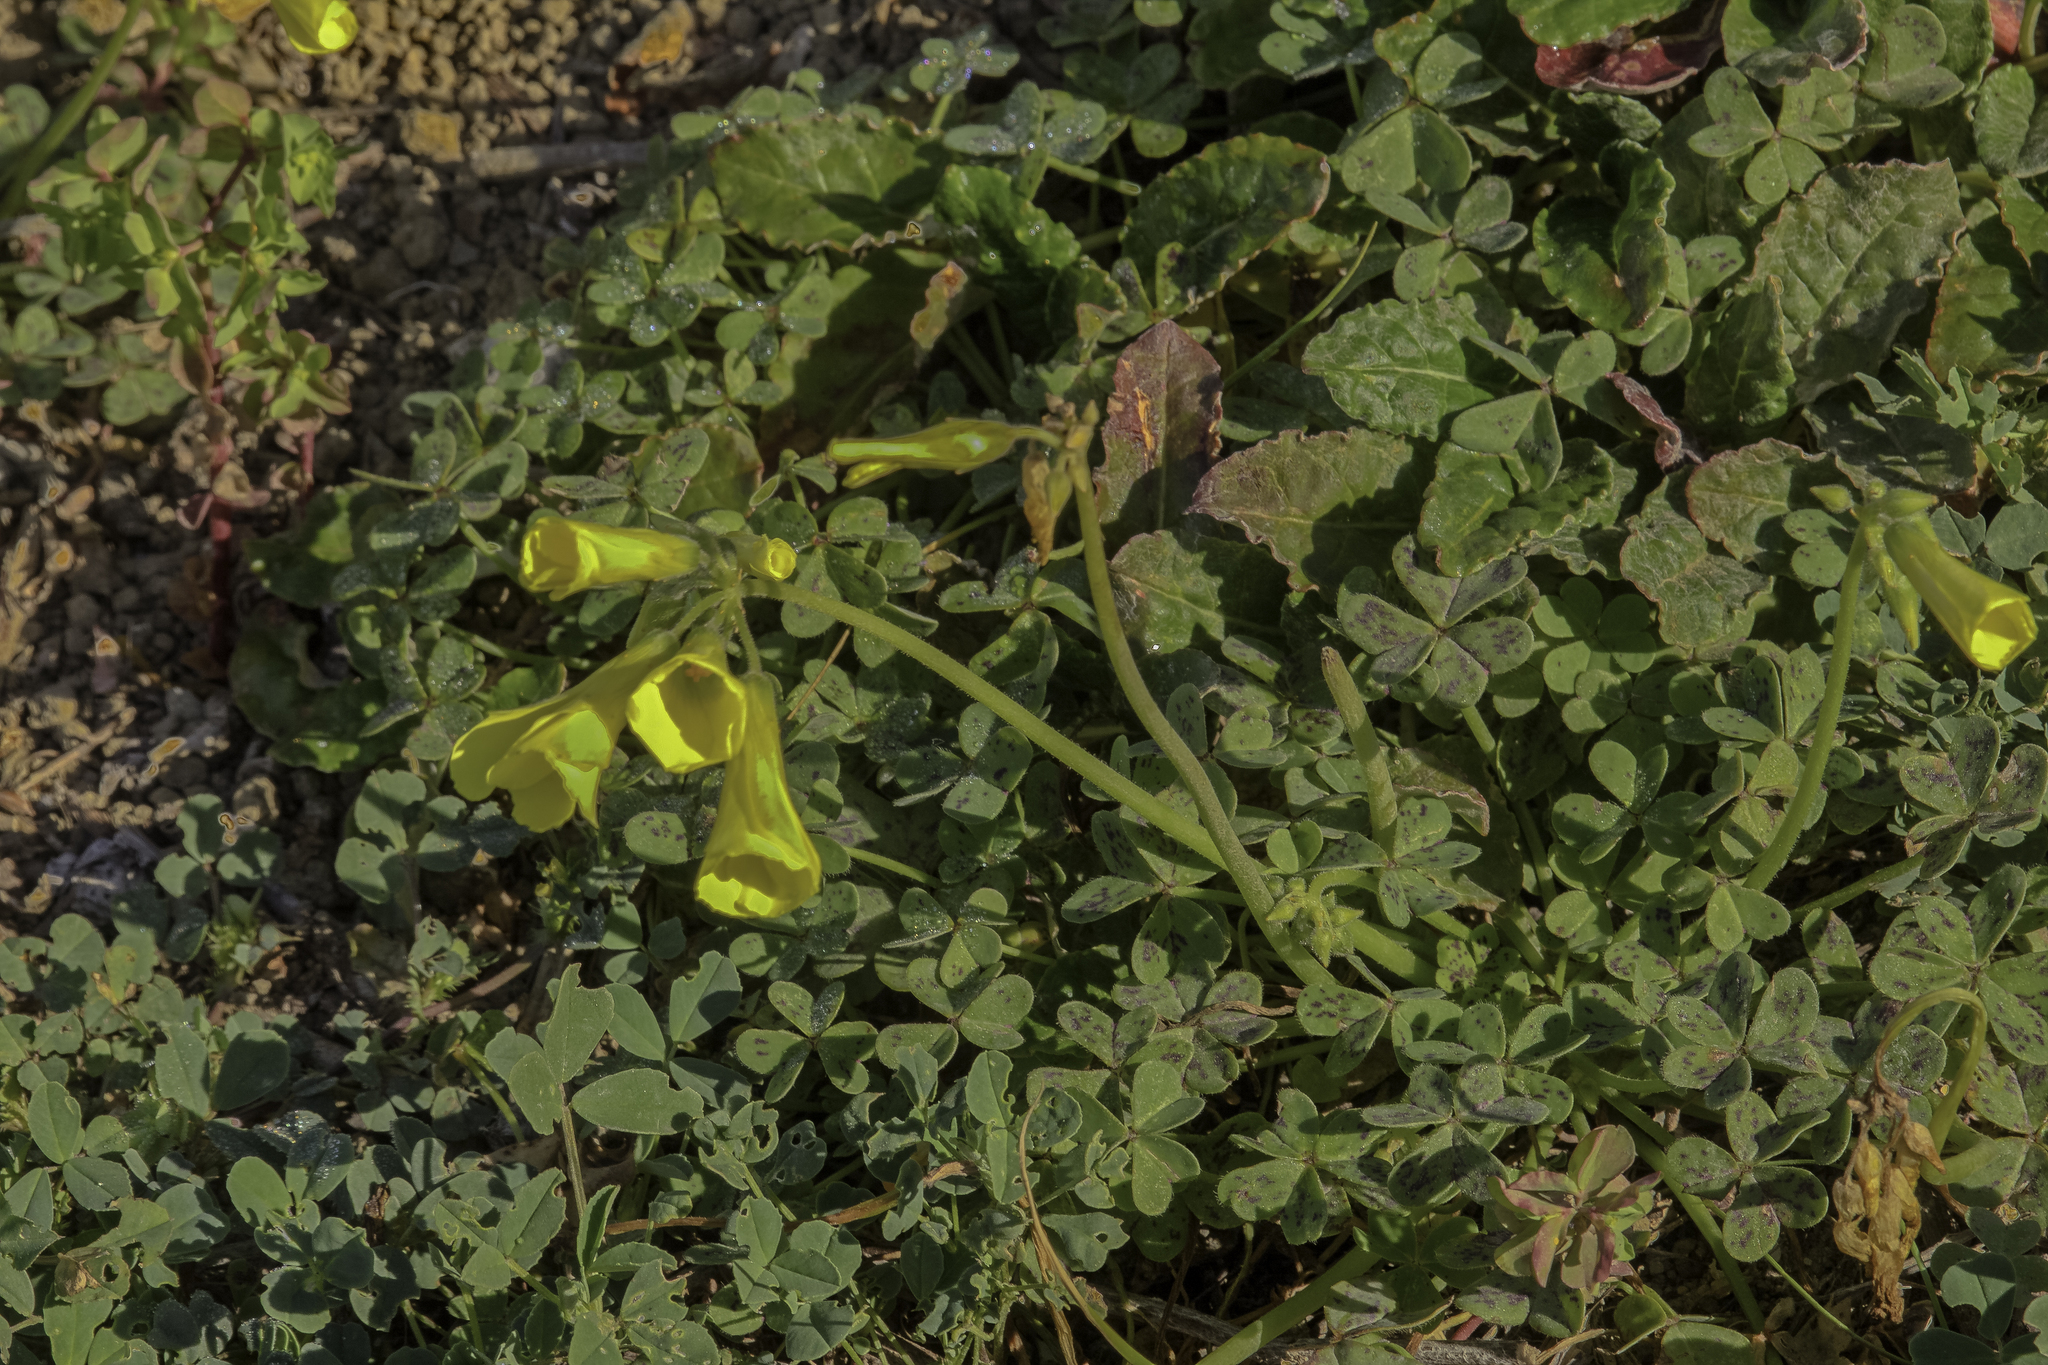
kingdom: Plantae
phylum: Tracheophyta
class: Magnoliopsida
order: Oxalidales
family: Oxalidaceae
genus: Oxalis
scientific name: Oxalis pes-caprae
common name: Bermuda-buttercup
